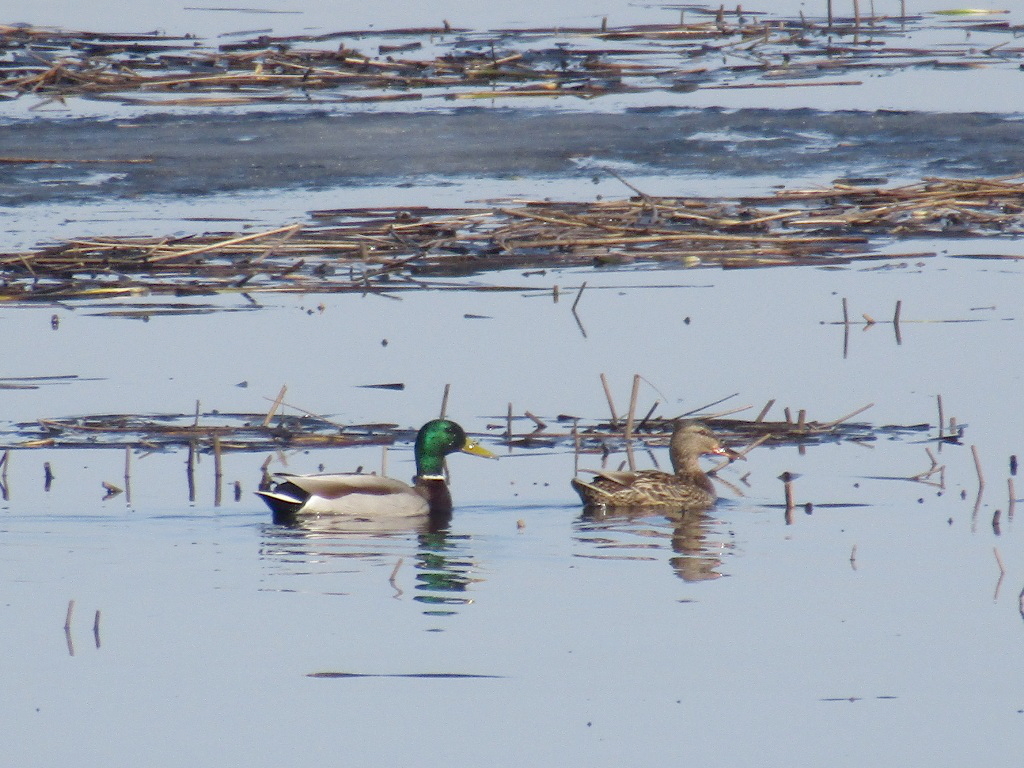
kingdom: Animalia
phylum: Chordata
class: Aves
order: Anseriformes
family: Anatidae
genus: Anas
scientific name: Anas platyrhynchos
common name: Mallard
